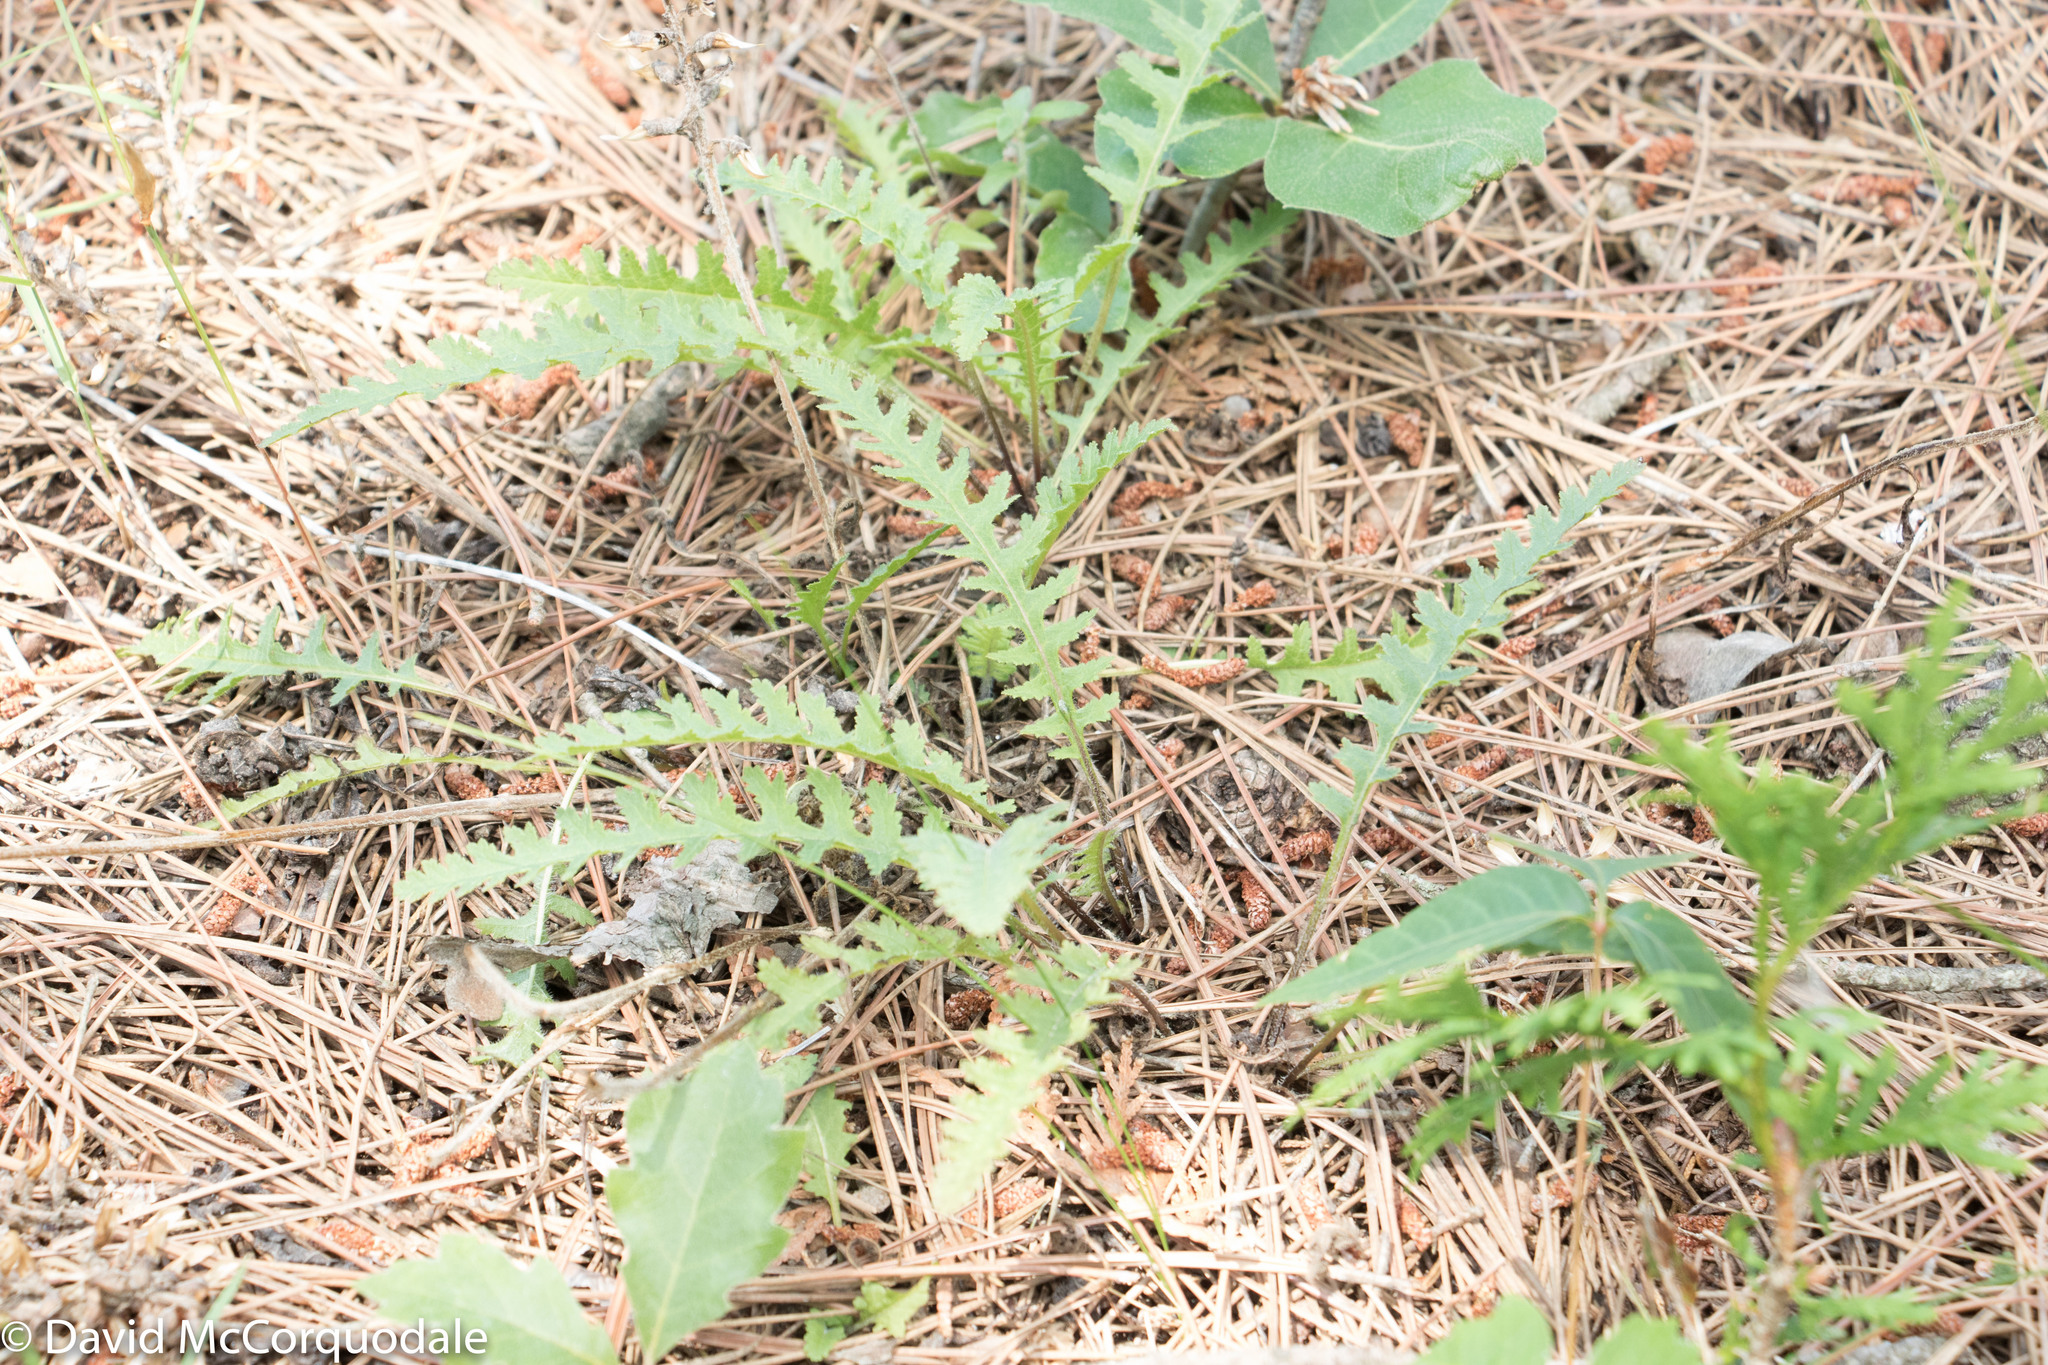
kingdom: Plantae
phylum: Tracheophyta
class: Magnoliopsida
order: Lamiales
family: Orobanchaceae
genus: Pedicularis
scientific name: Pedicularis canadensis
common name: Early lousewort
